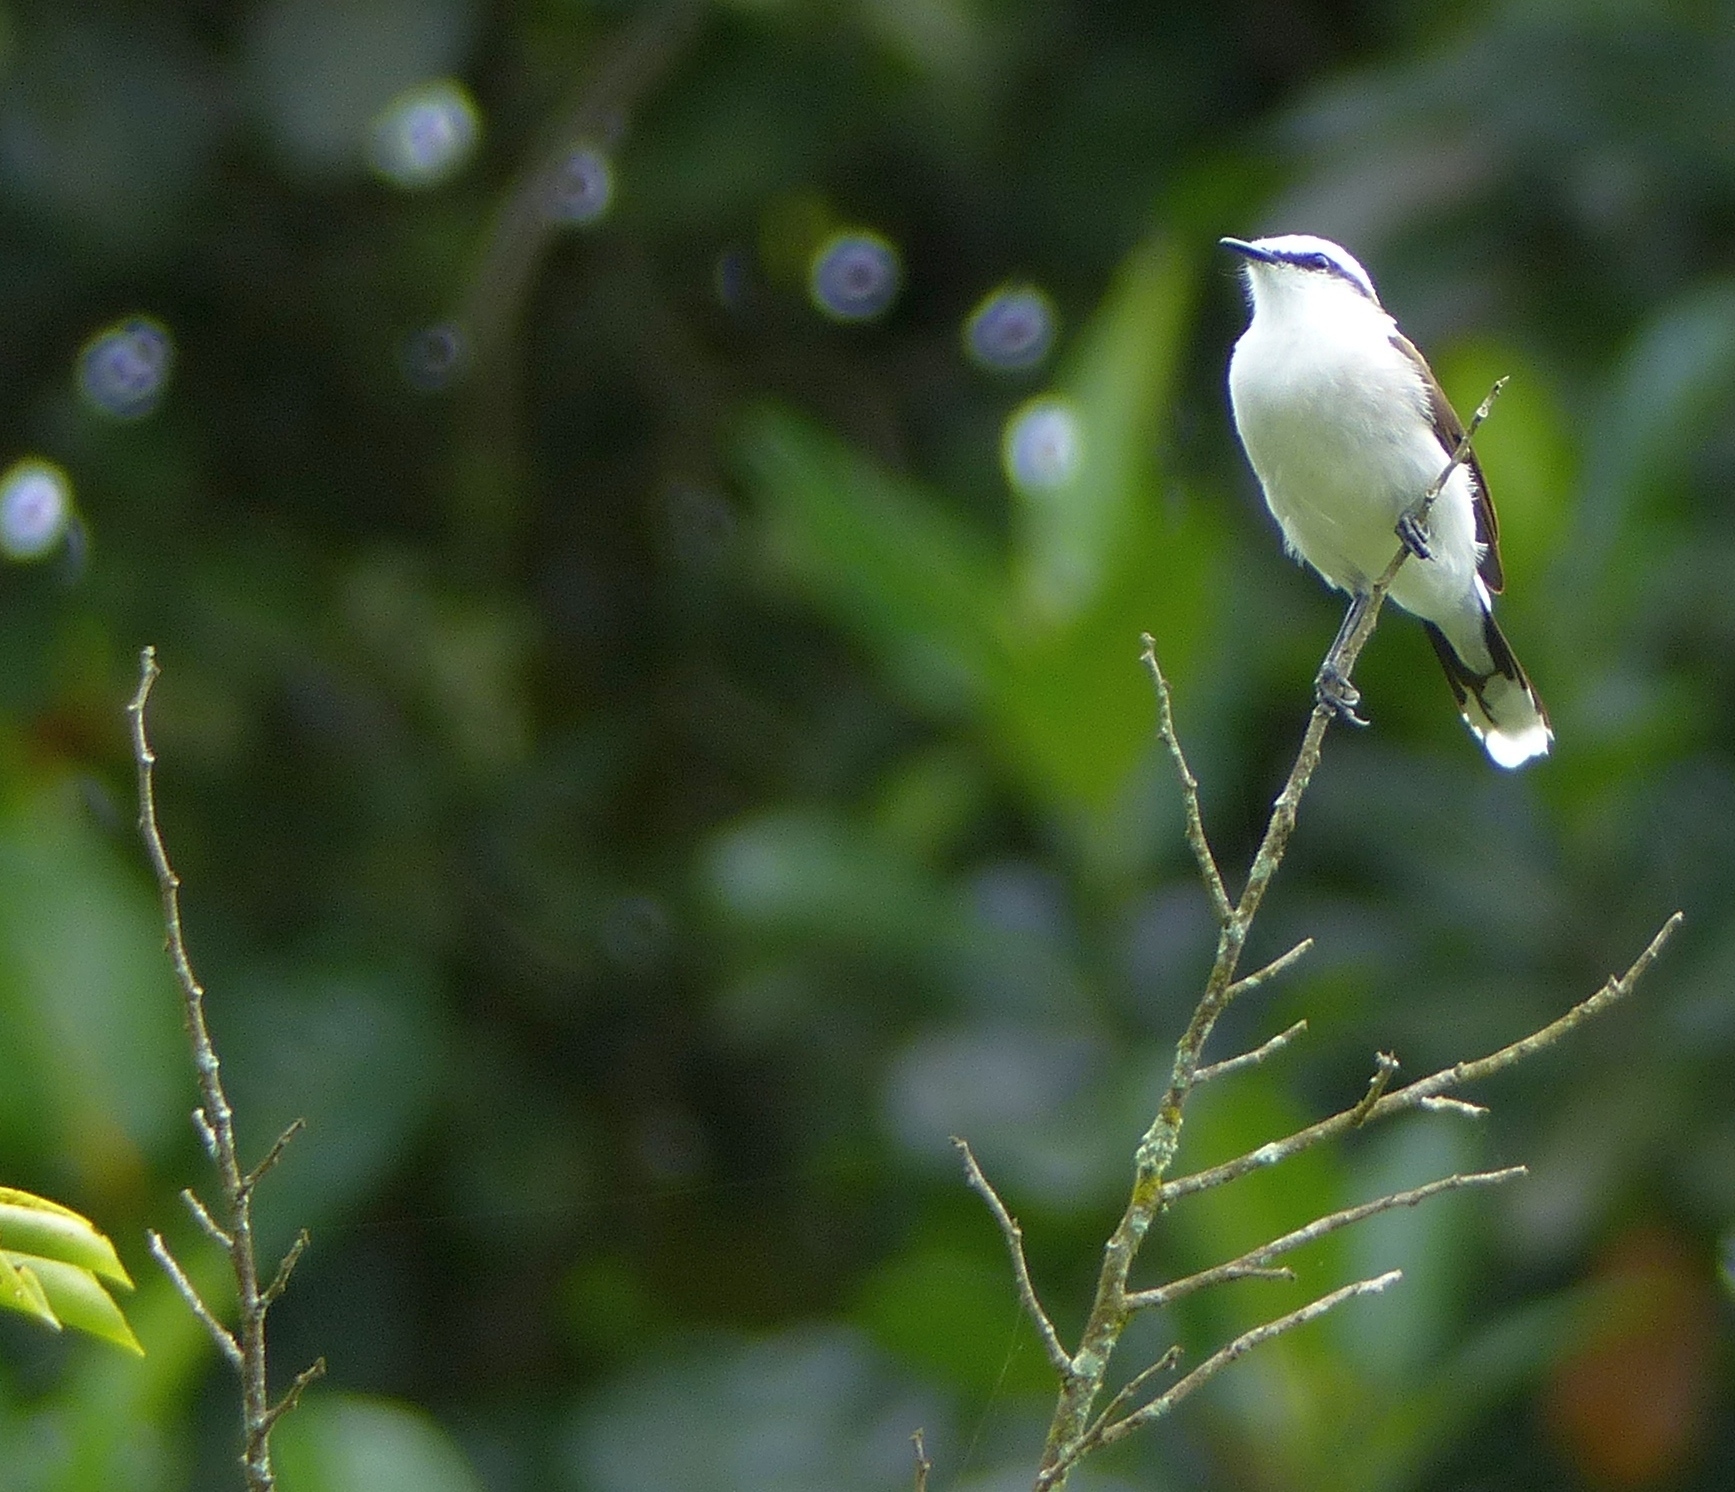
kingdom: Animalia
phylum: Chordata
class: Aves
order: Passeriformes
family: Tyrannidae
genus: Fluvicola
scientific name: Fluvicola nengeta
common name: Masked water tyrant
